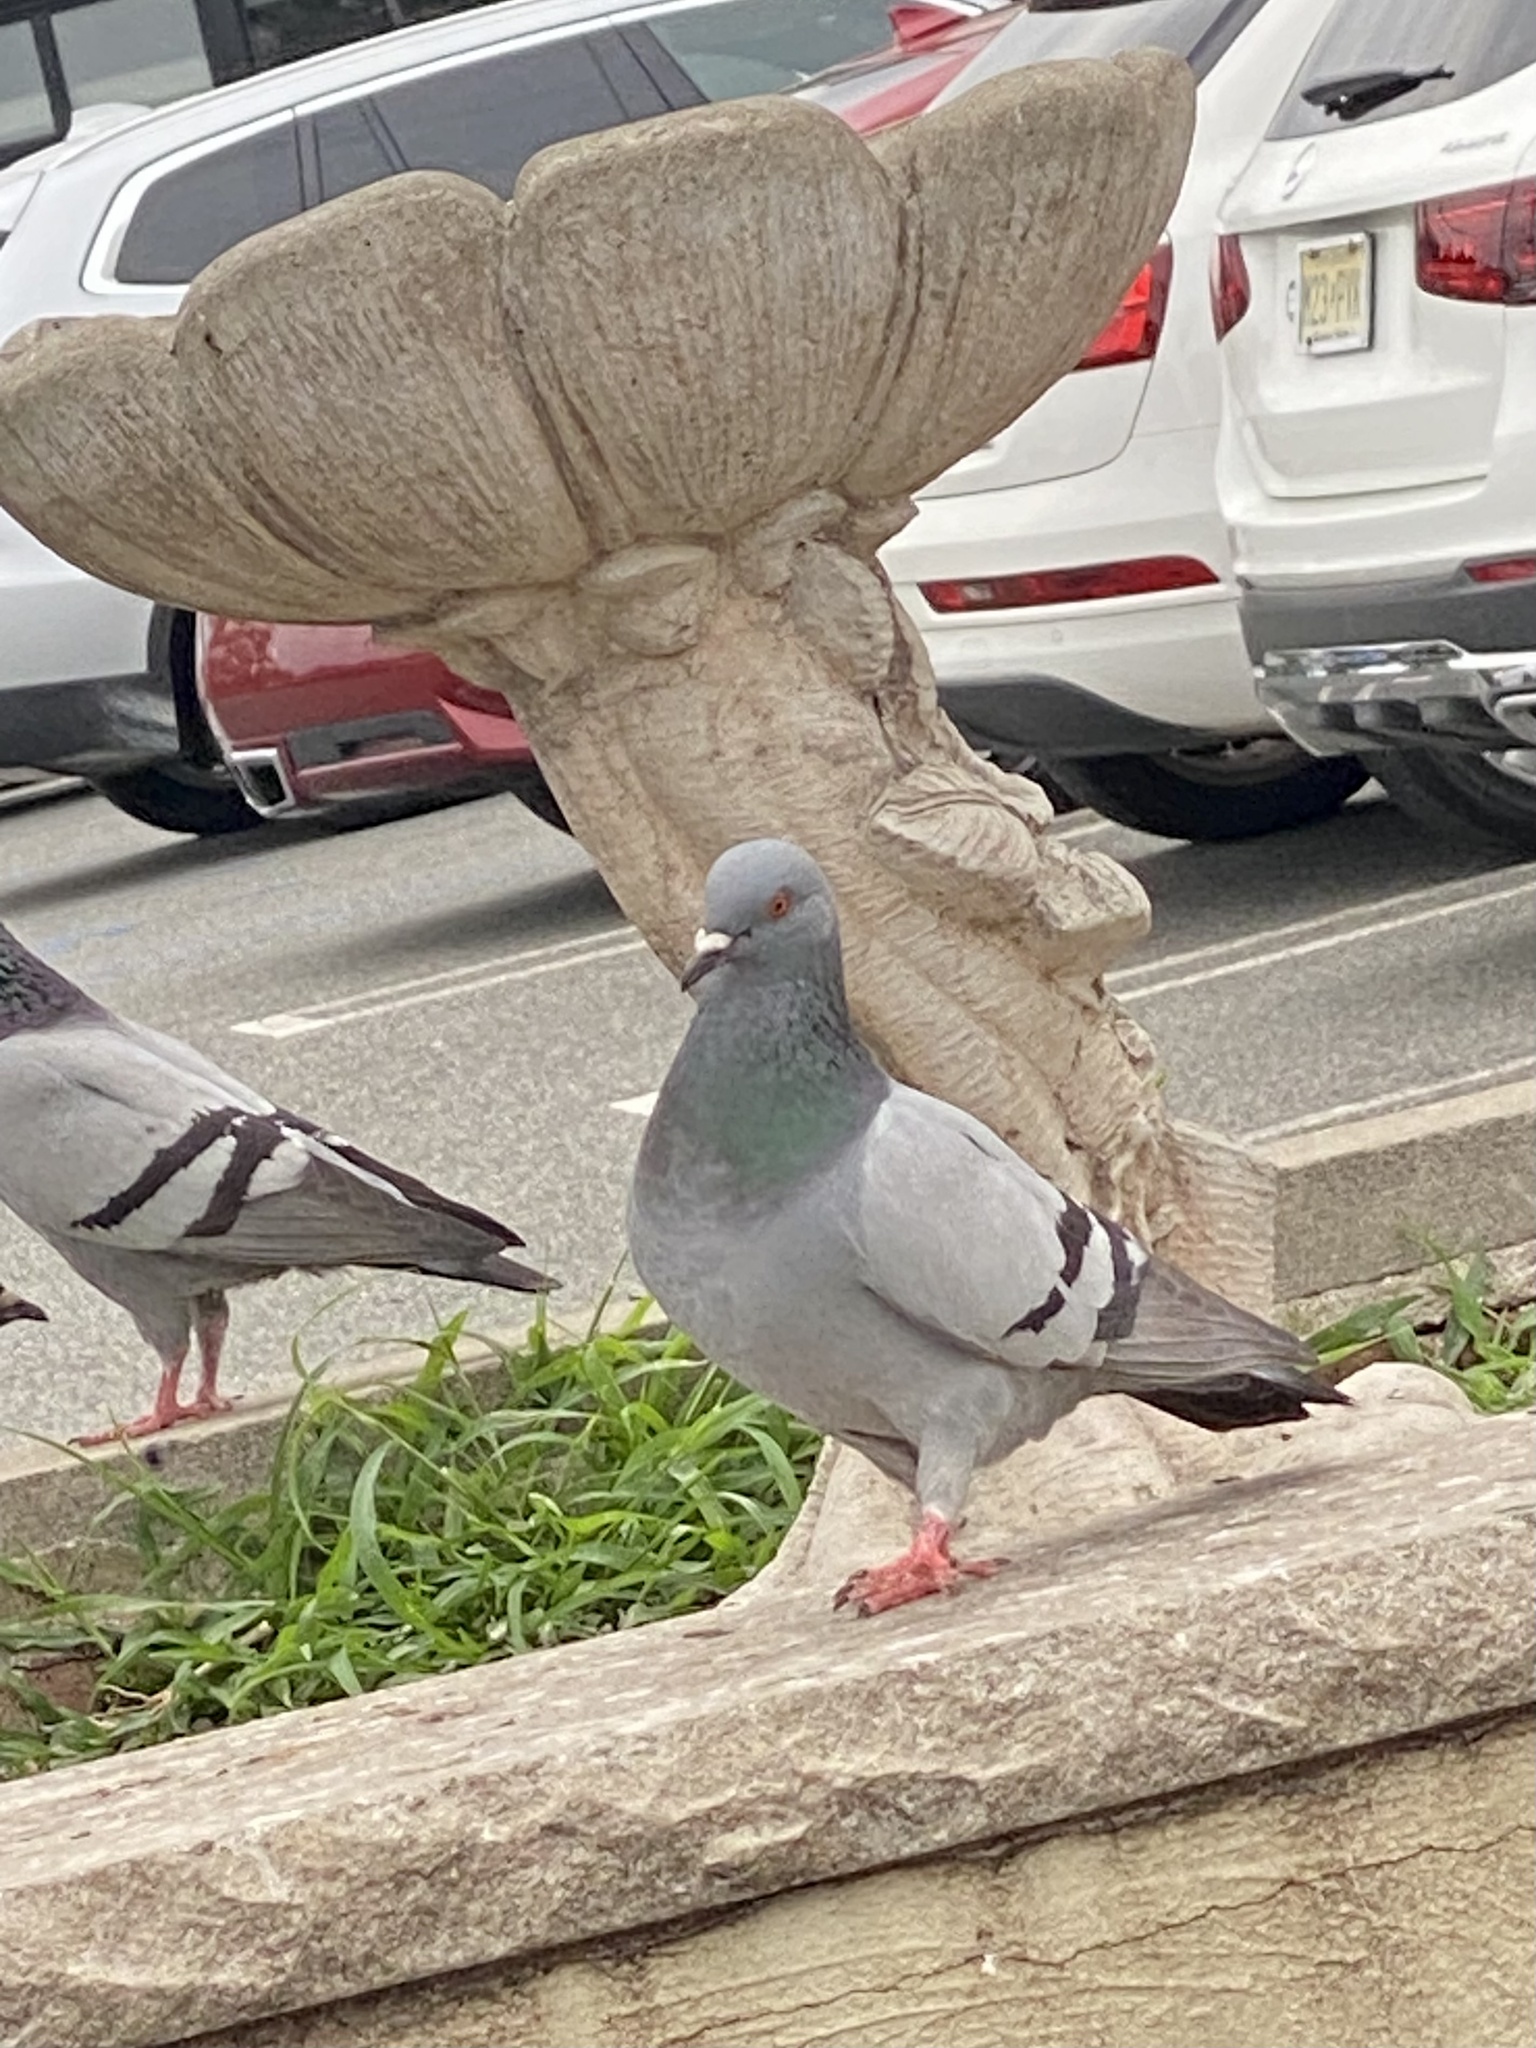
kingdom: Animalia
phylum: Chordata
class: Aves
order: Columbiformes
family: Columbidae
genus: Columba
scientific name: Columba livia
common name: Rock pigeon
